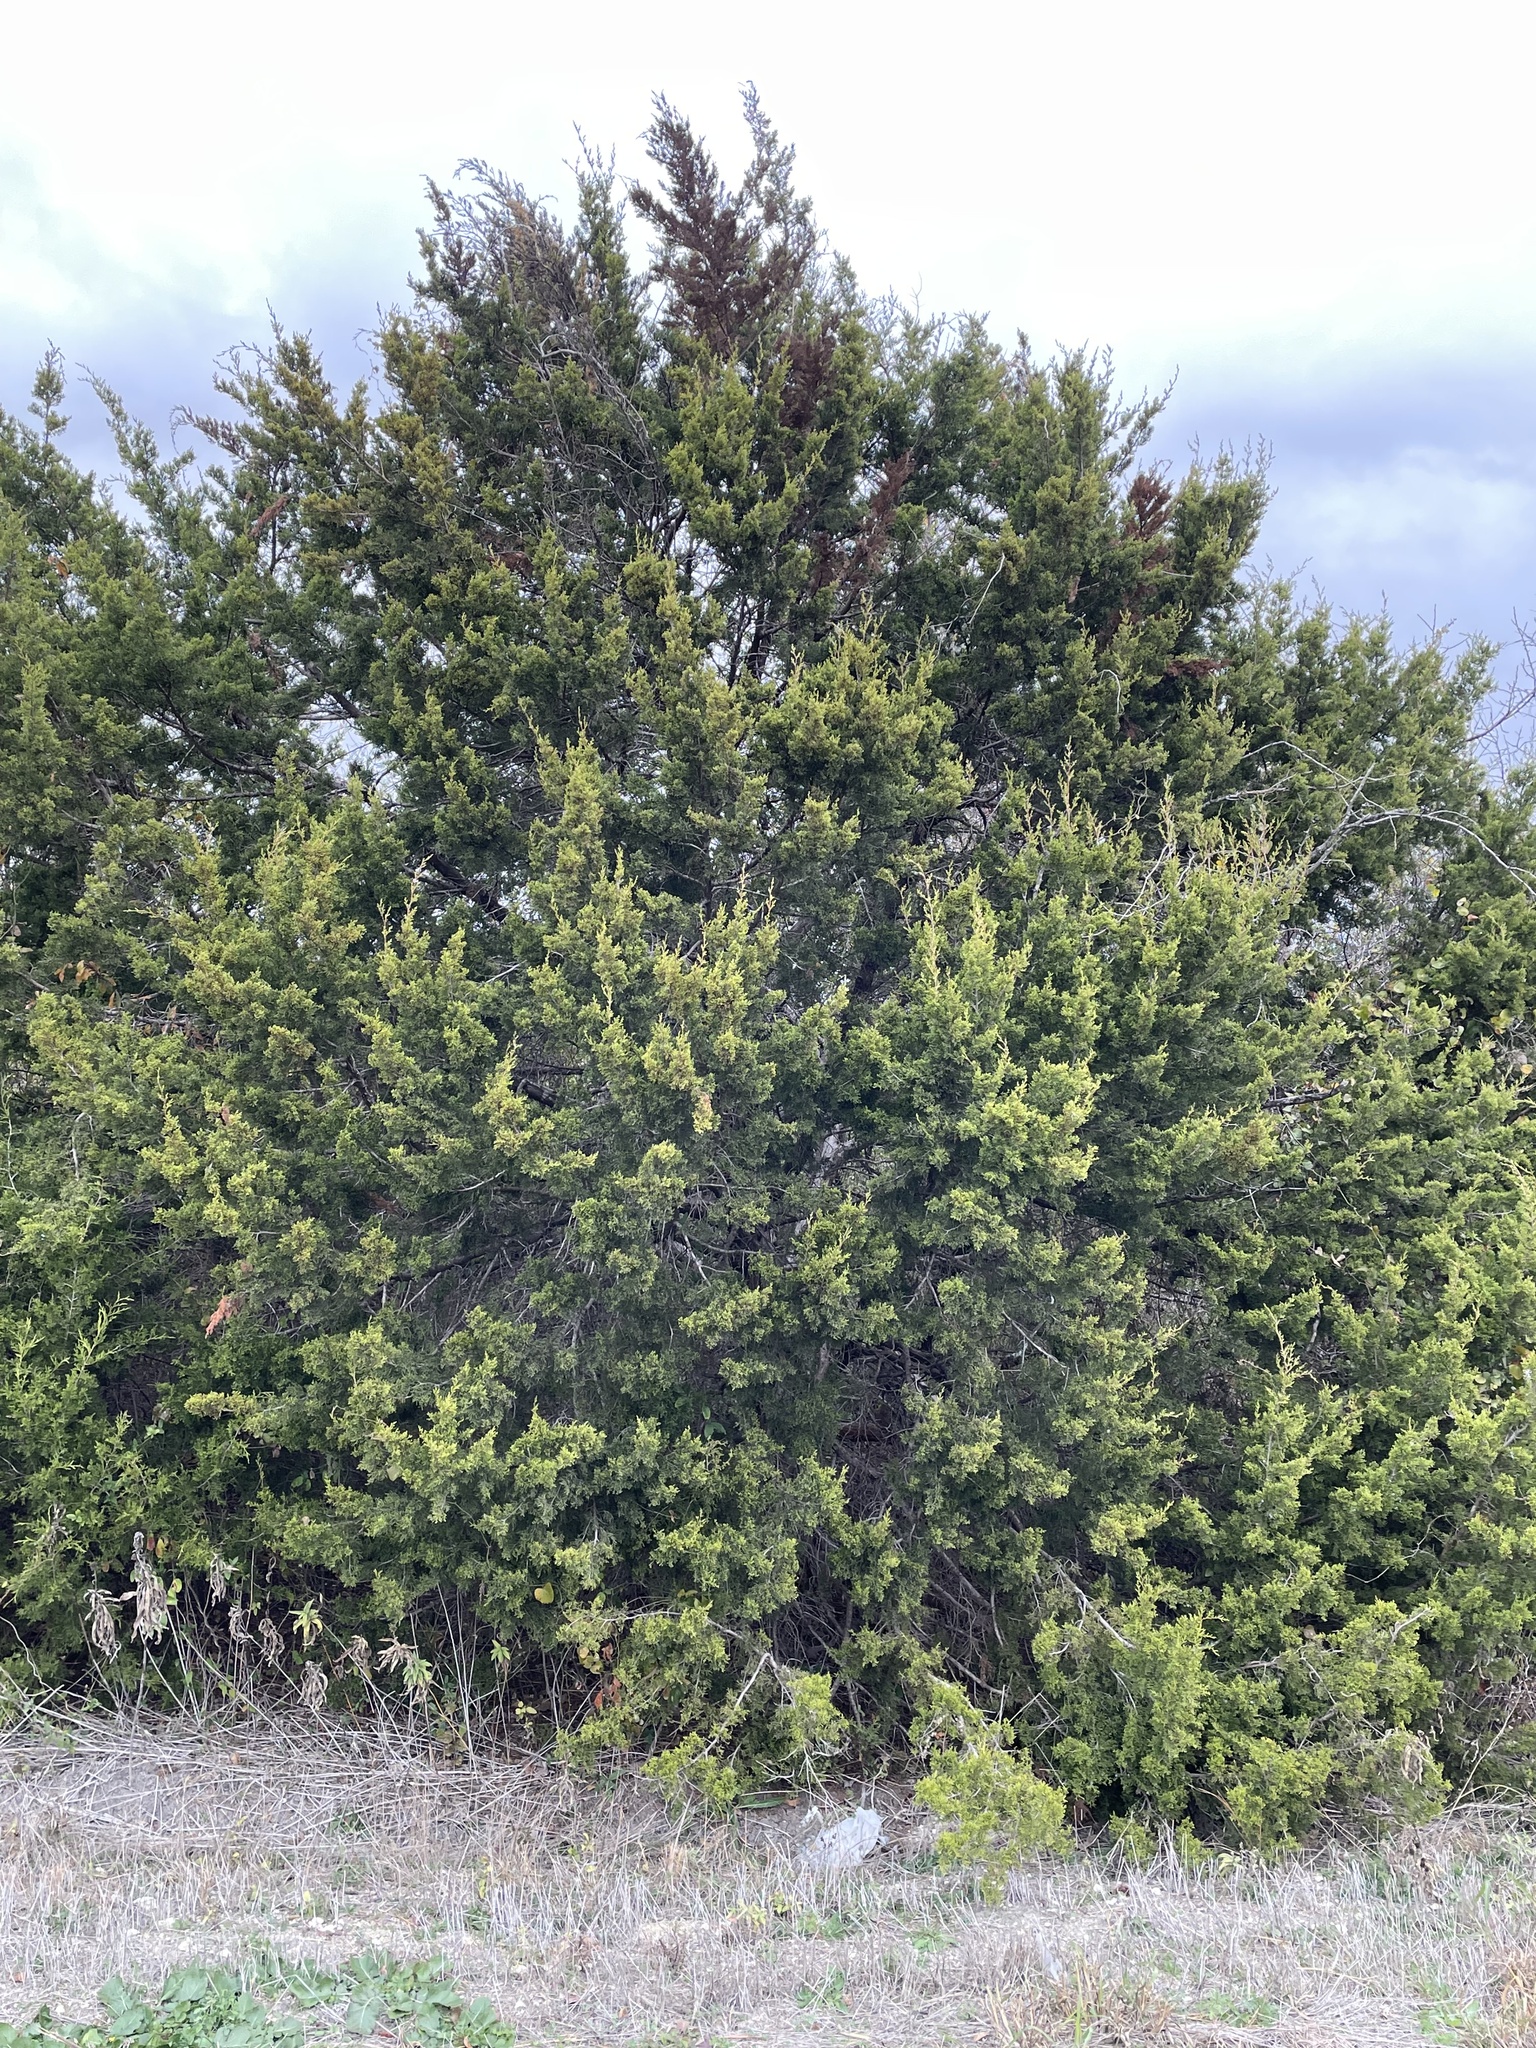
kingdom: Plantae
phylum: Tracheophyta
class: Pinopsida
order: Pinales
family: Cupressaceae
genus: Juniperus
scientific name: Juniperus ashei
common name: Mexican juniper
